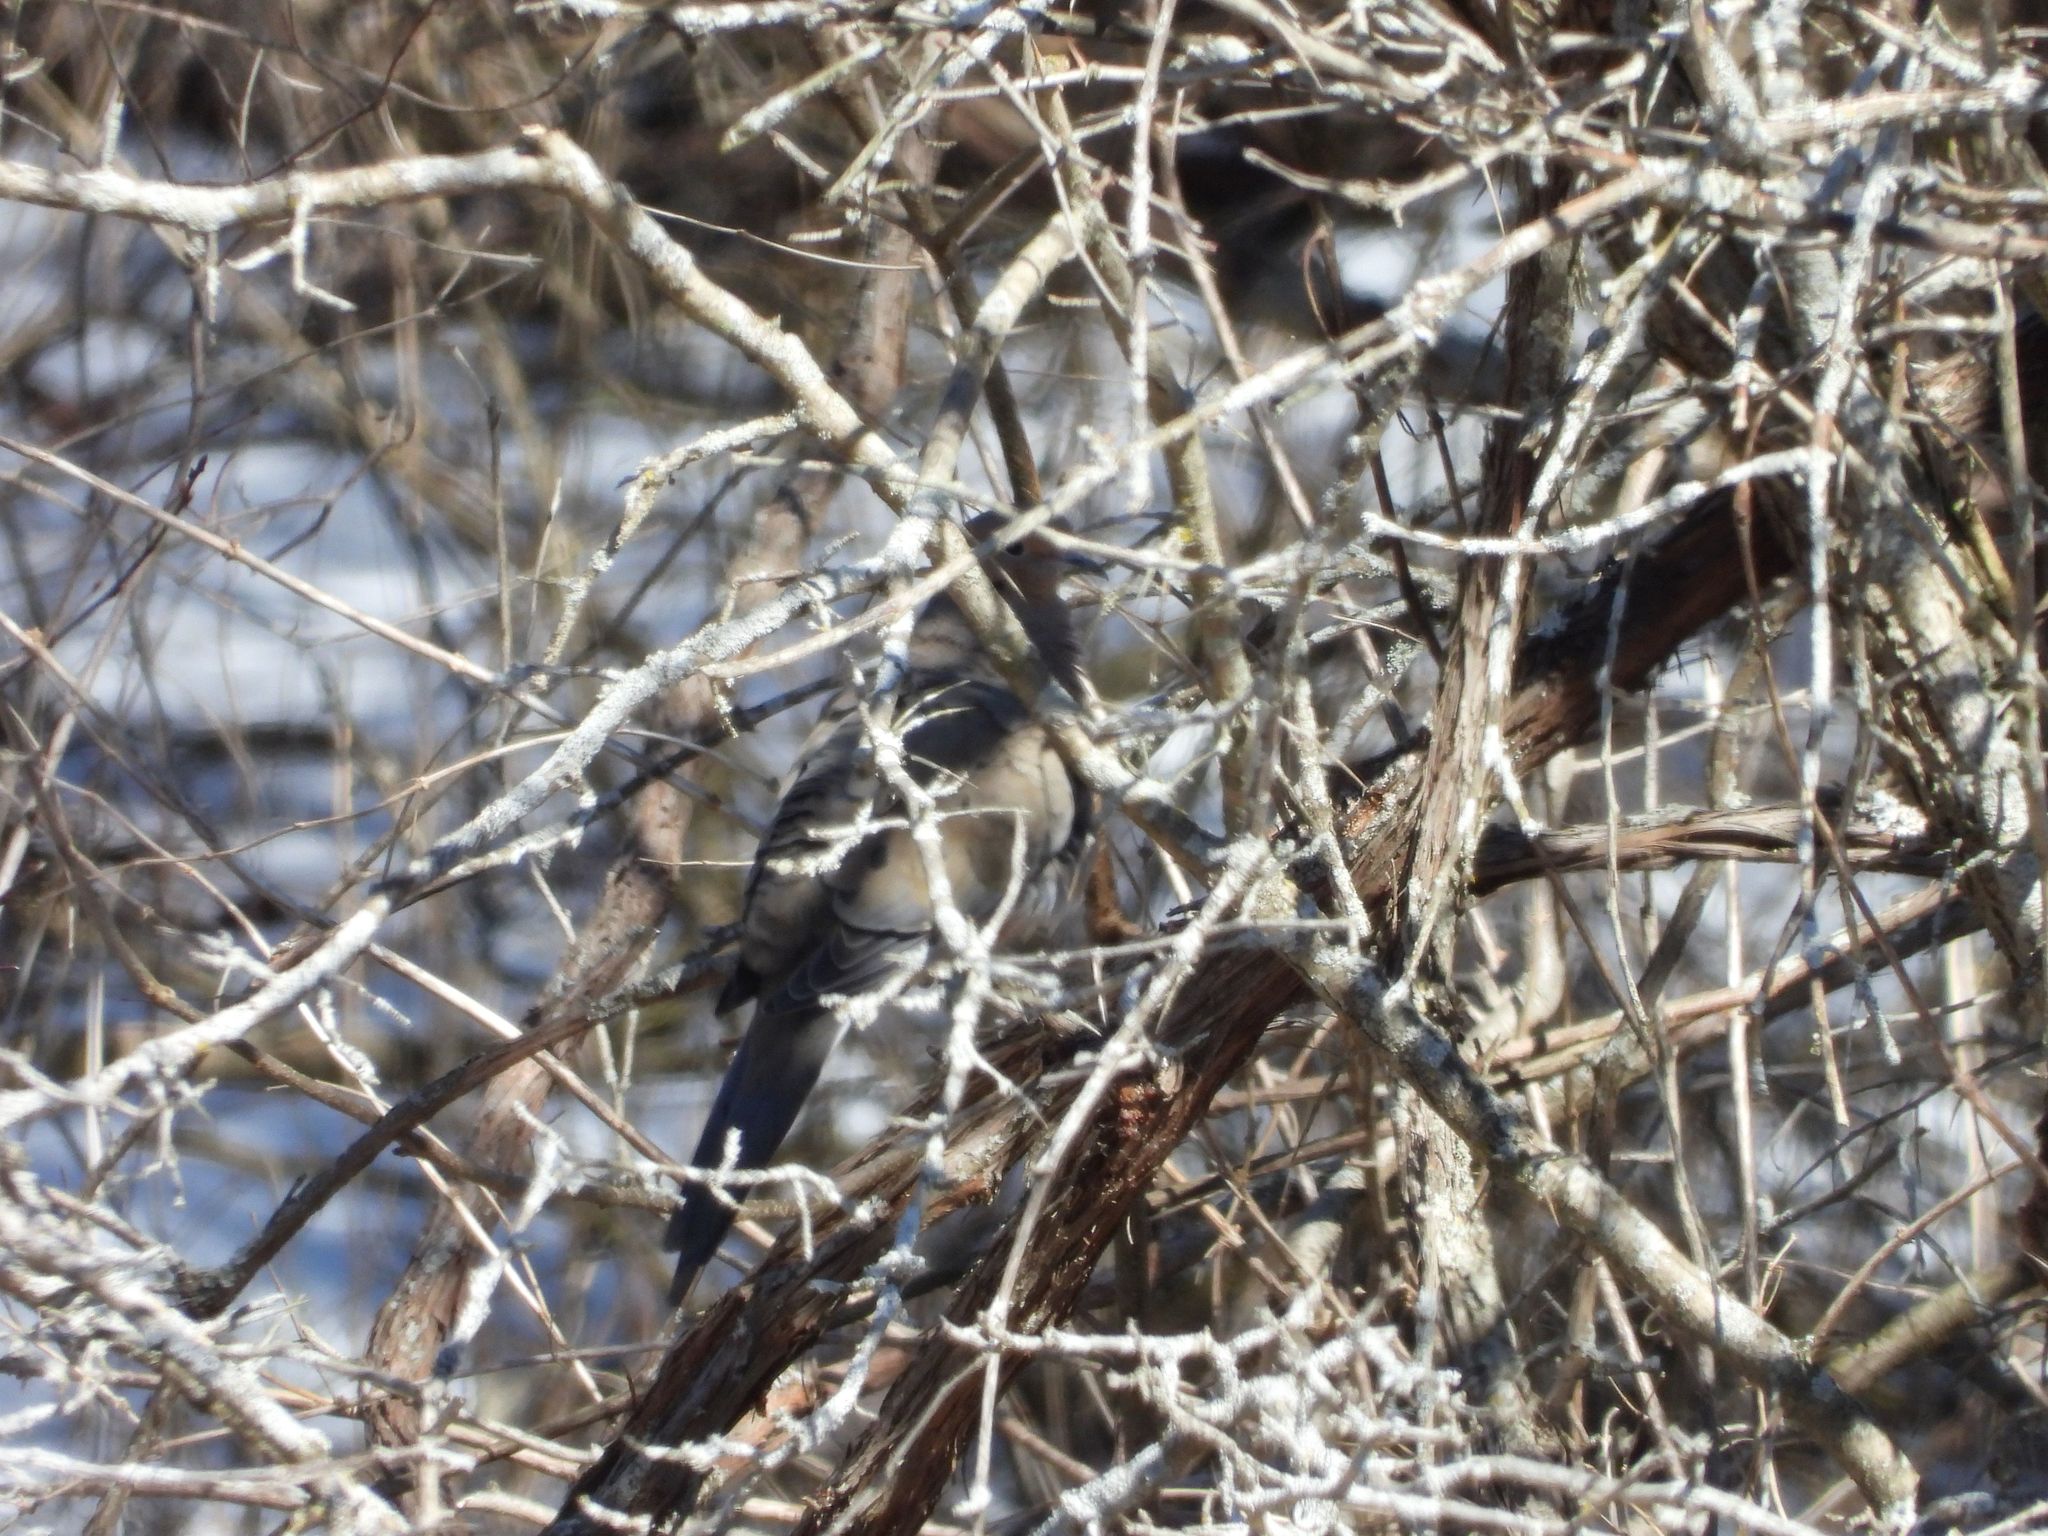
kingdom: Animalia
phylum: Chordata
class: Aves
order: Columbiformes
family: Columbidae
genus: Zenaida
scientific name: Zenaida macroura
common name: Mourning dove
